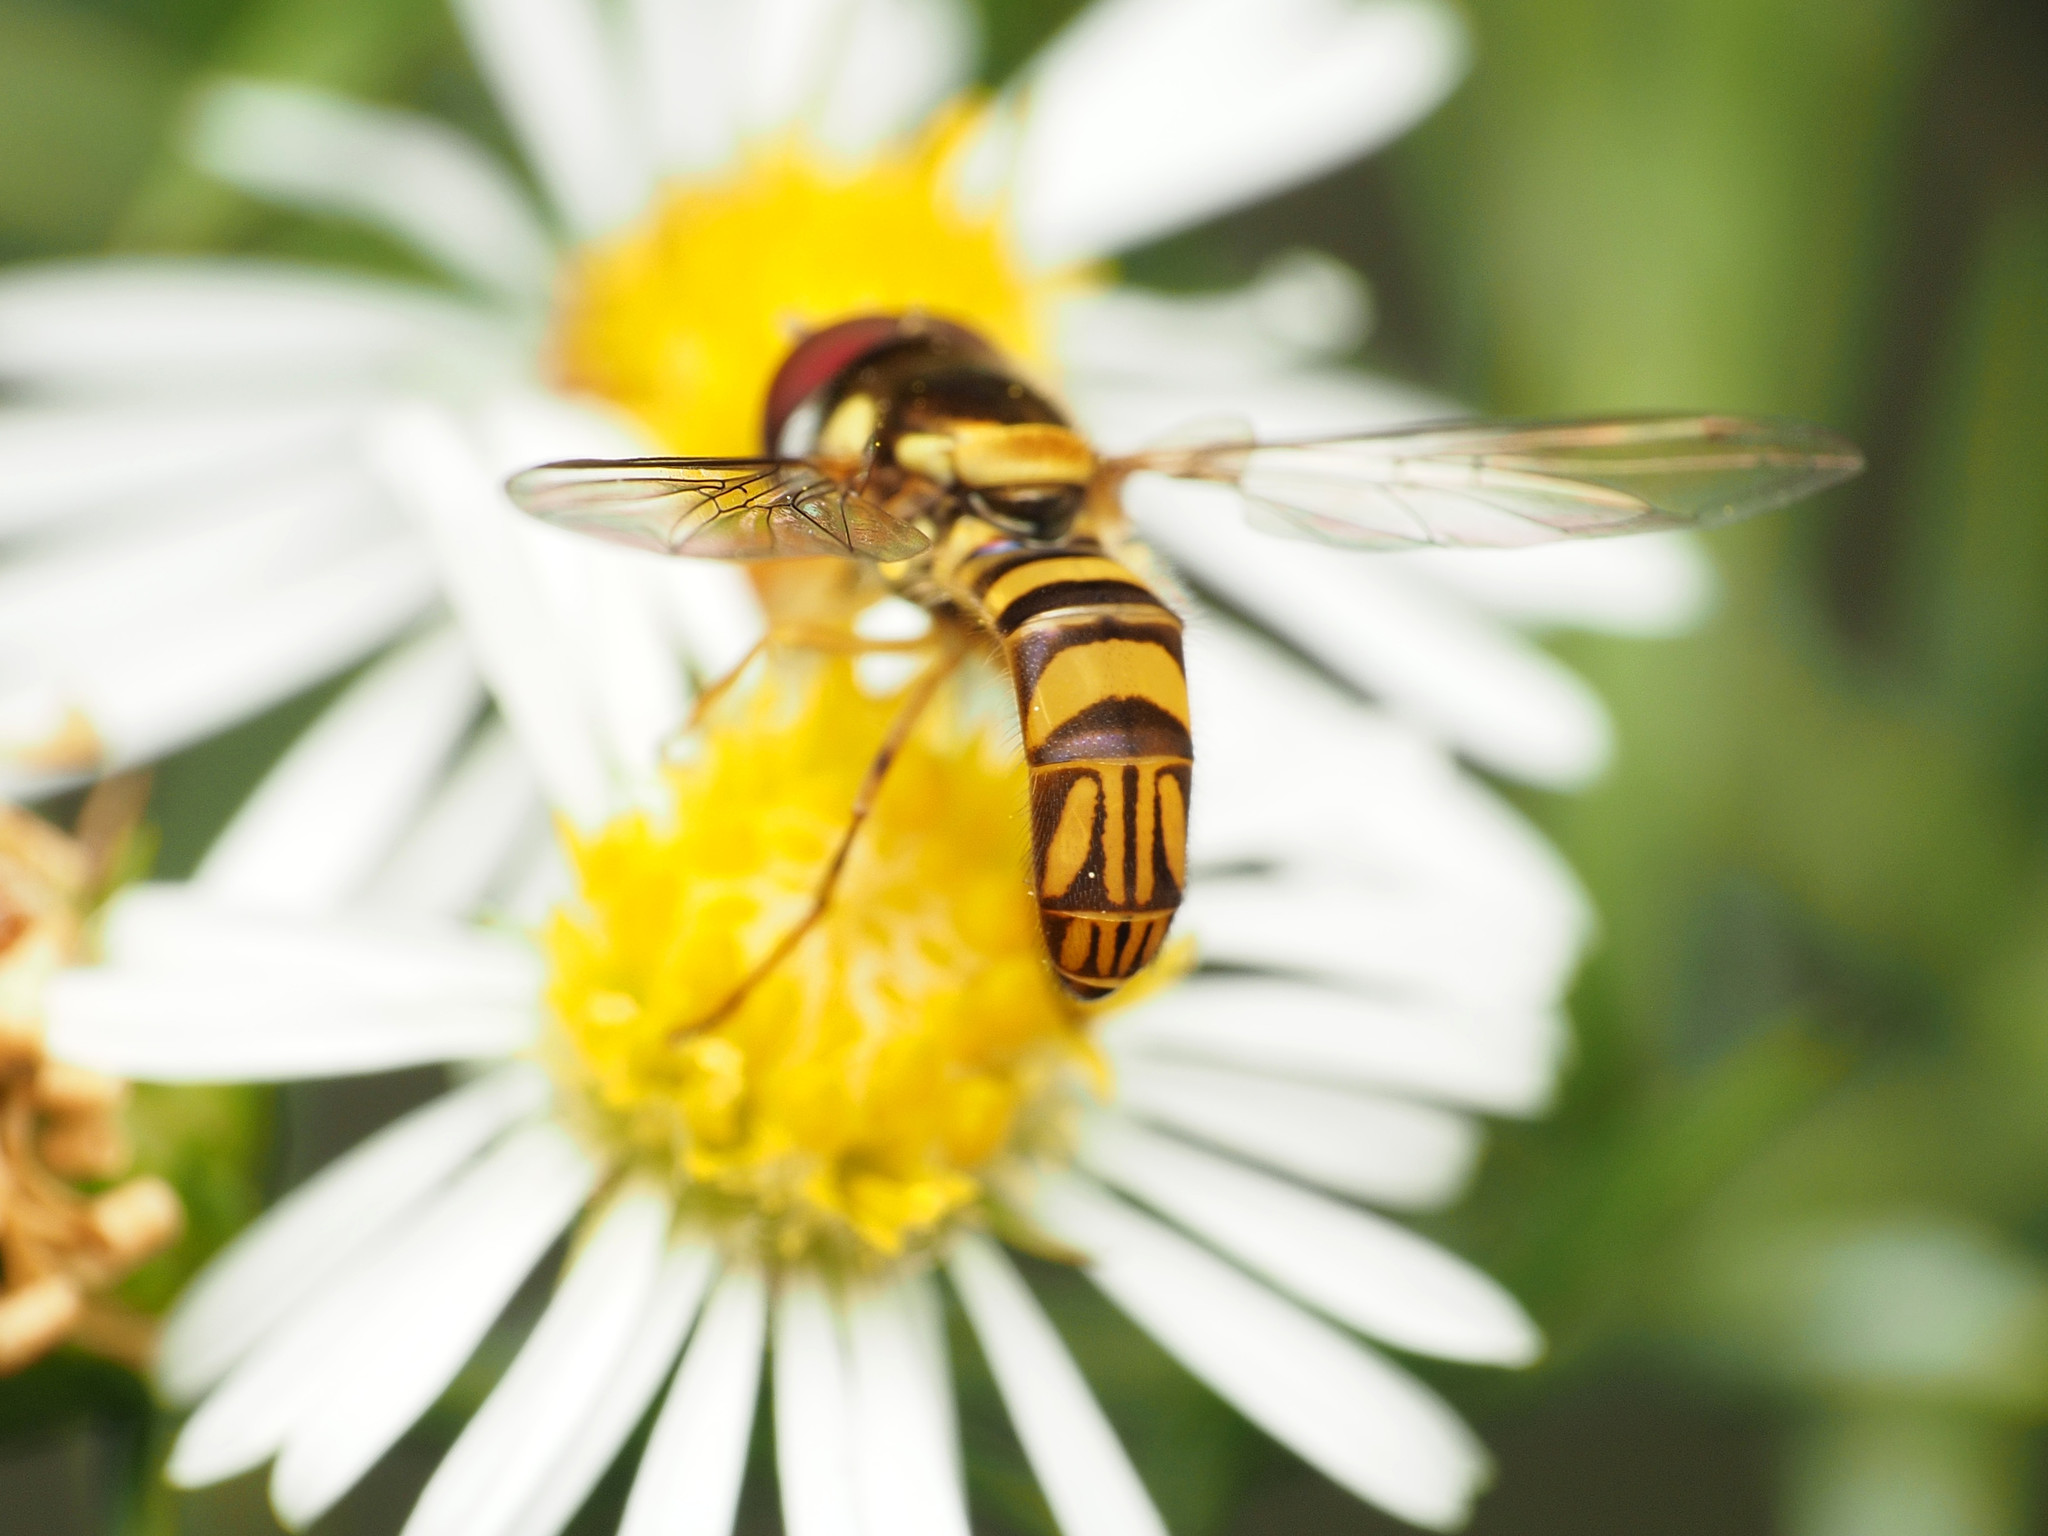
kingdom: Animalia
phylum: Arthropoda
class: Insecta
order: Diptera
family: Syrphidae
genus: Allograpta
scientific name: Allograpta obliqua
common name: Common oblique syrphid
